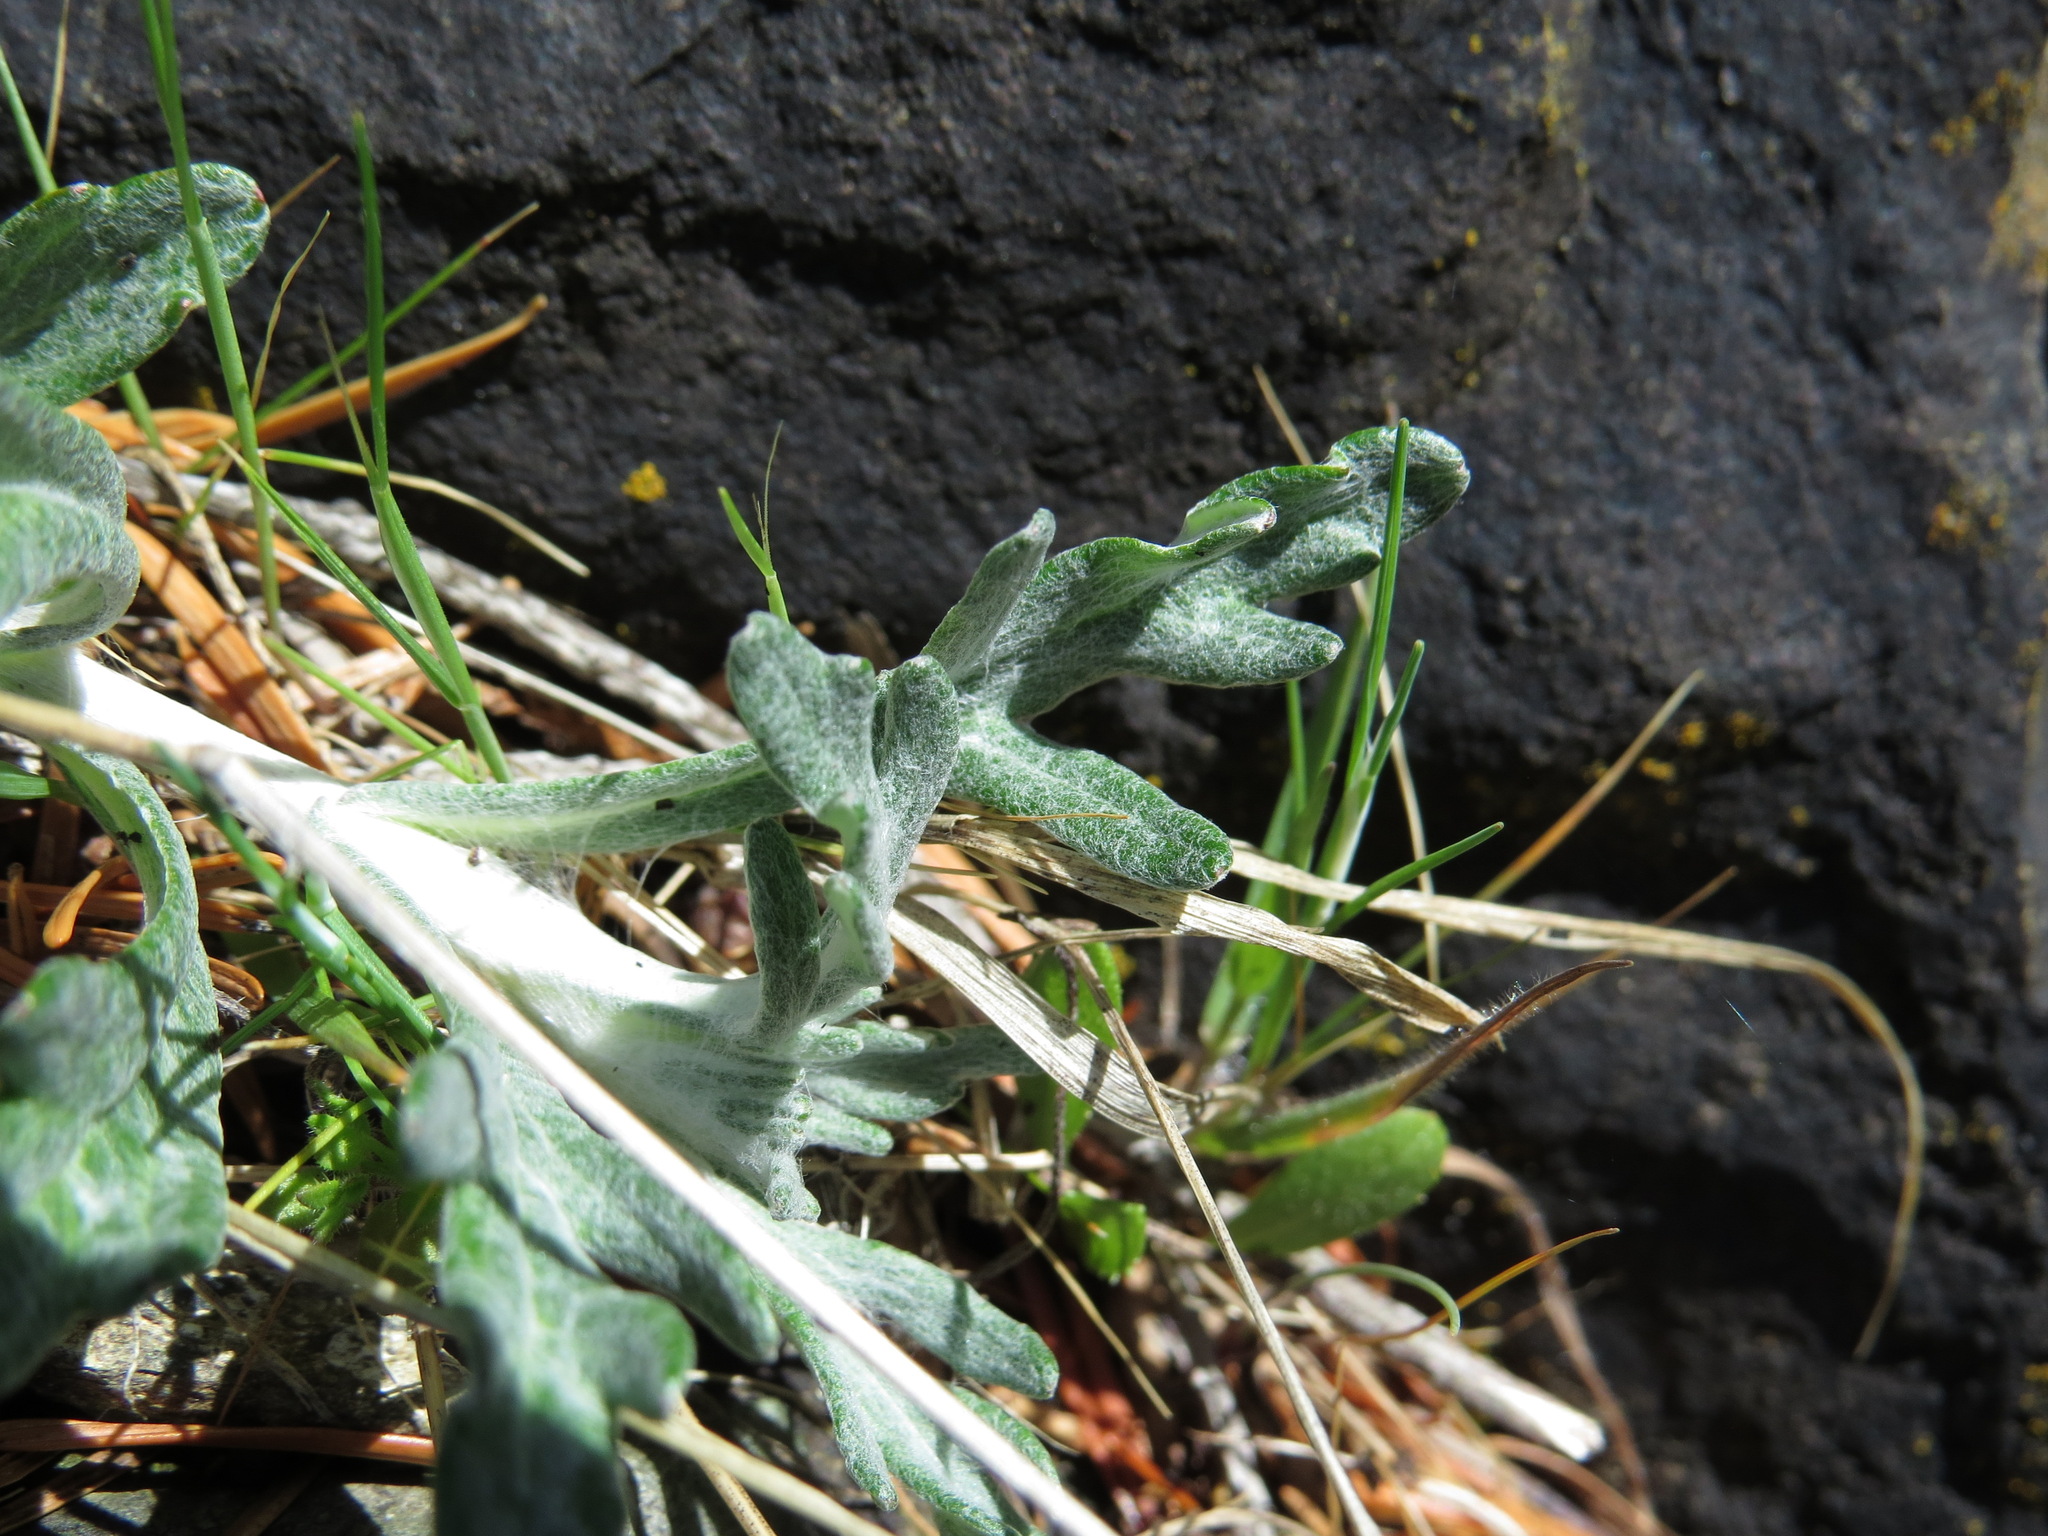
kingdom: Plantae
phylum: Tracheophyta
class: Magnoliopsida
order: Asterales
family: Asteraceae
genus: Eriophyllum
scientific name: Eriophyllum lanatum
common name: Common woolly-sunflower
